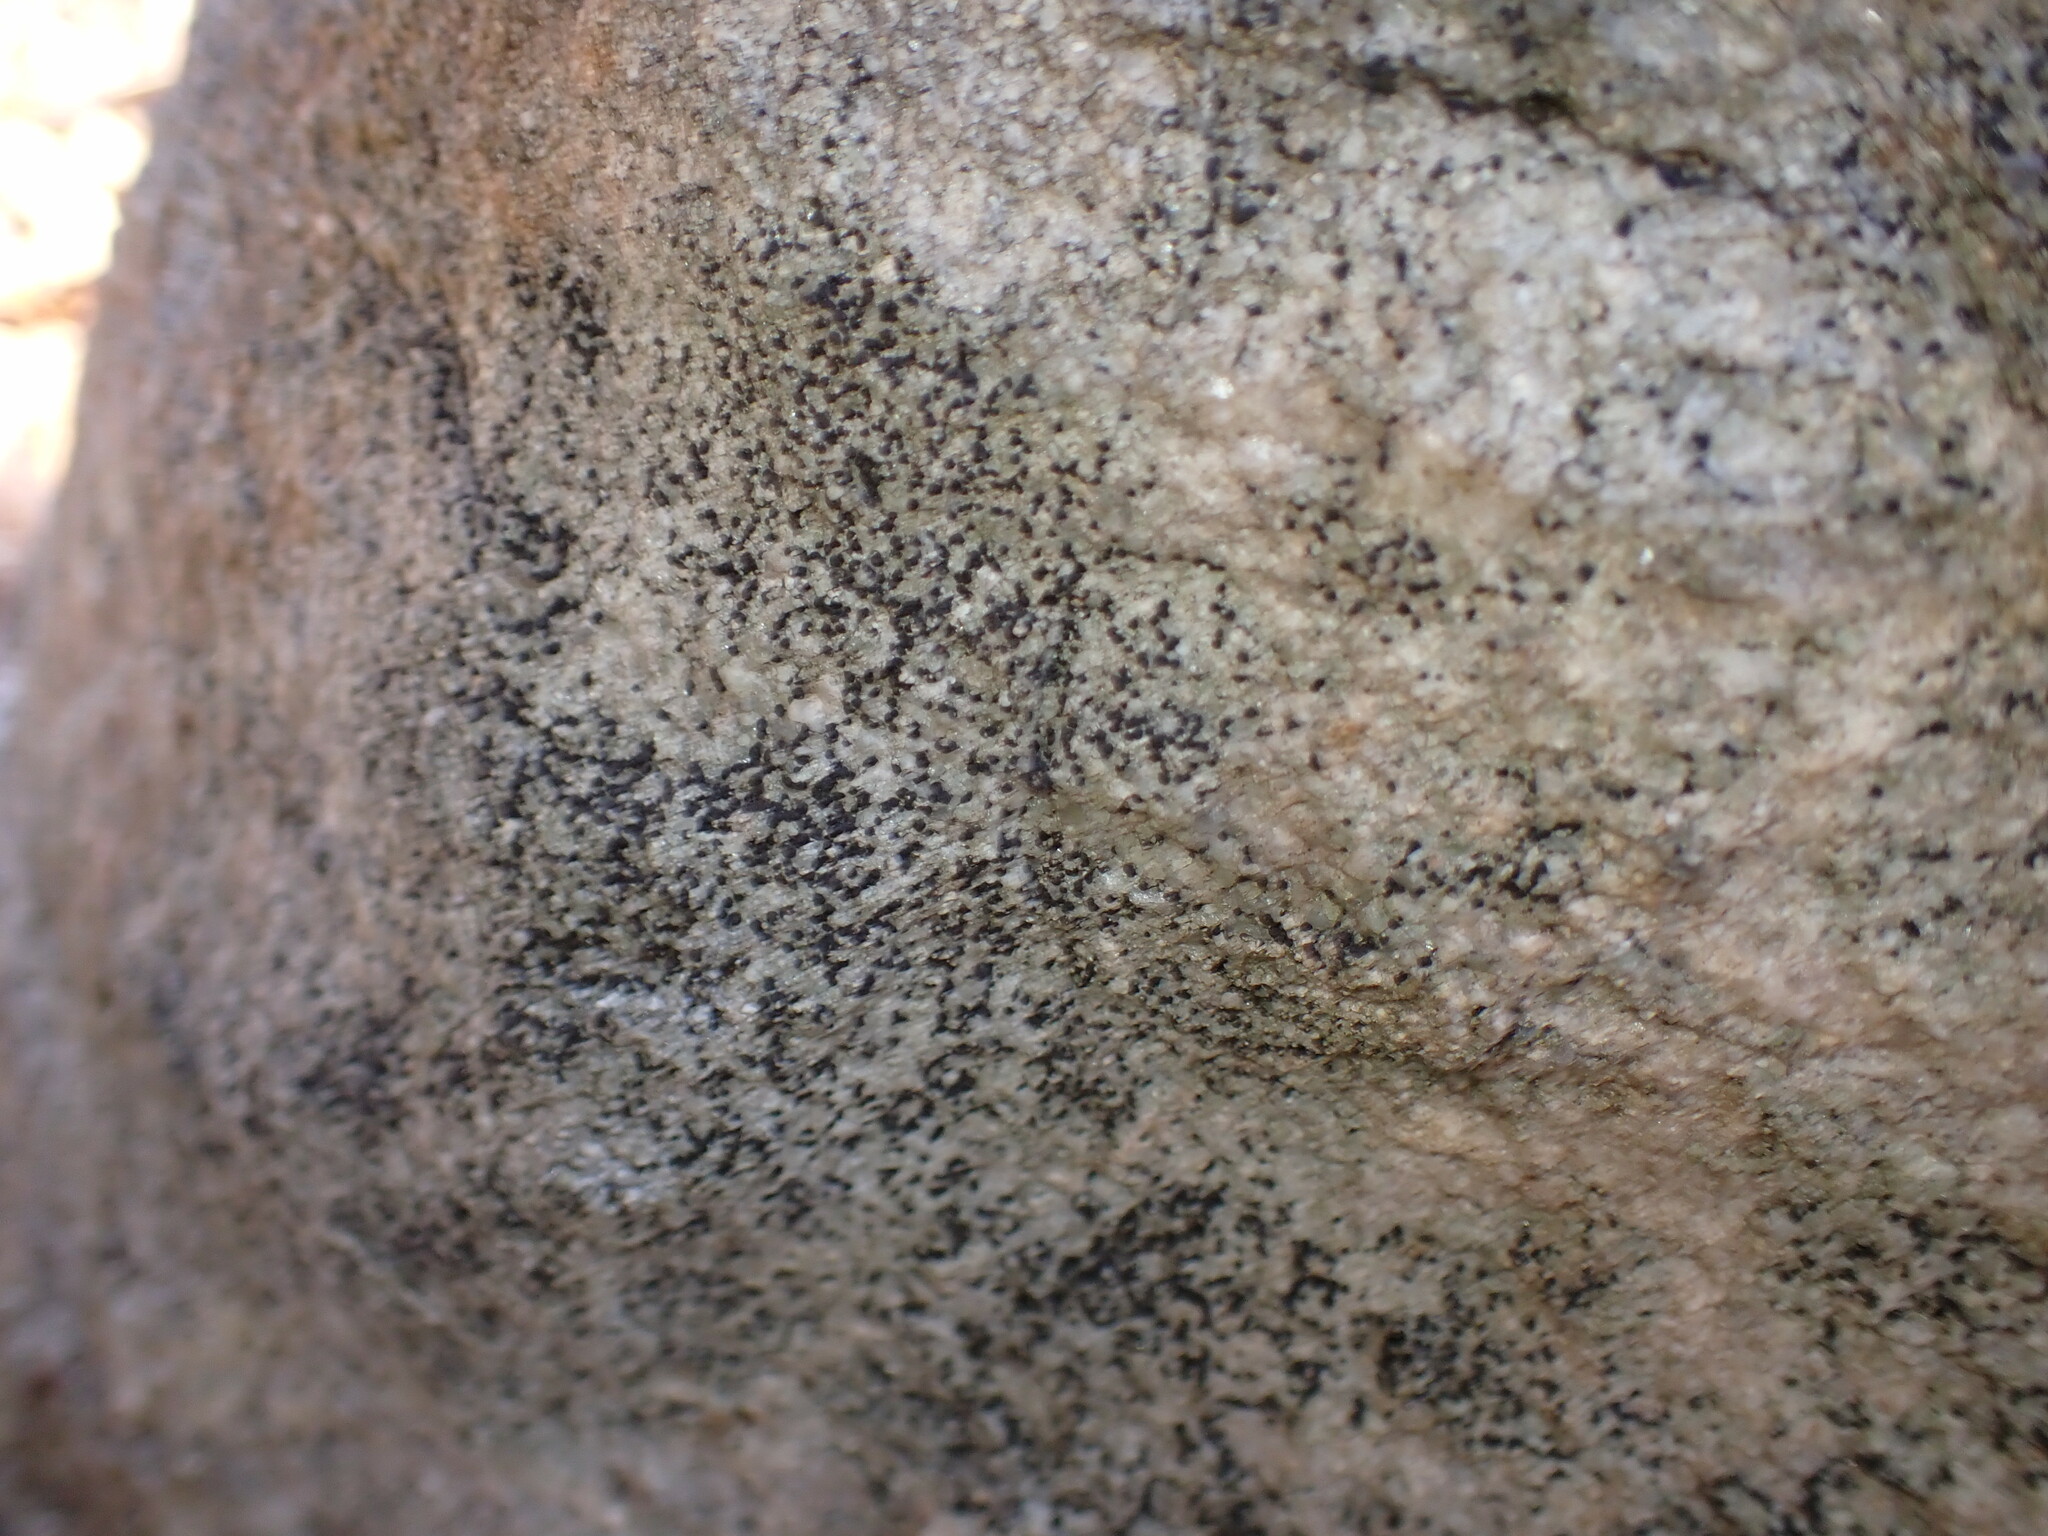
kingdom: Fungi
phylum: Ascomycota
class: Lecanoromycetes
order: Acarosporales
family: Acarosporaceae
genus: Sarcogyne
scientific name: Sarcogyne clavus
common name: Club grain-spored lichen
